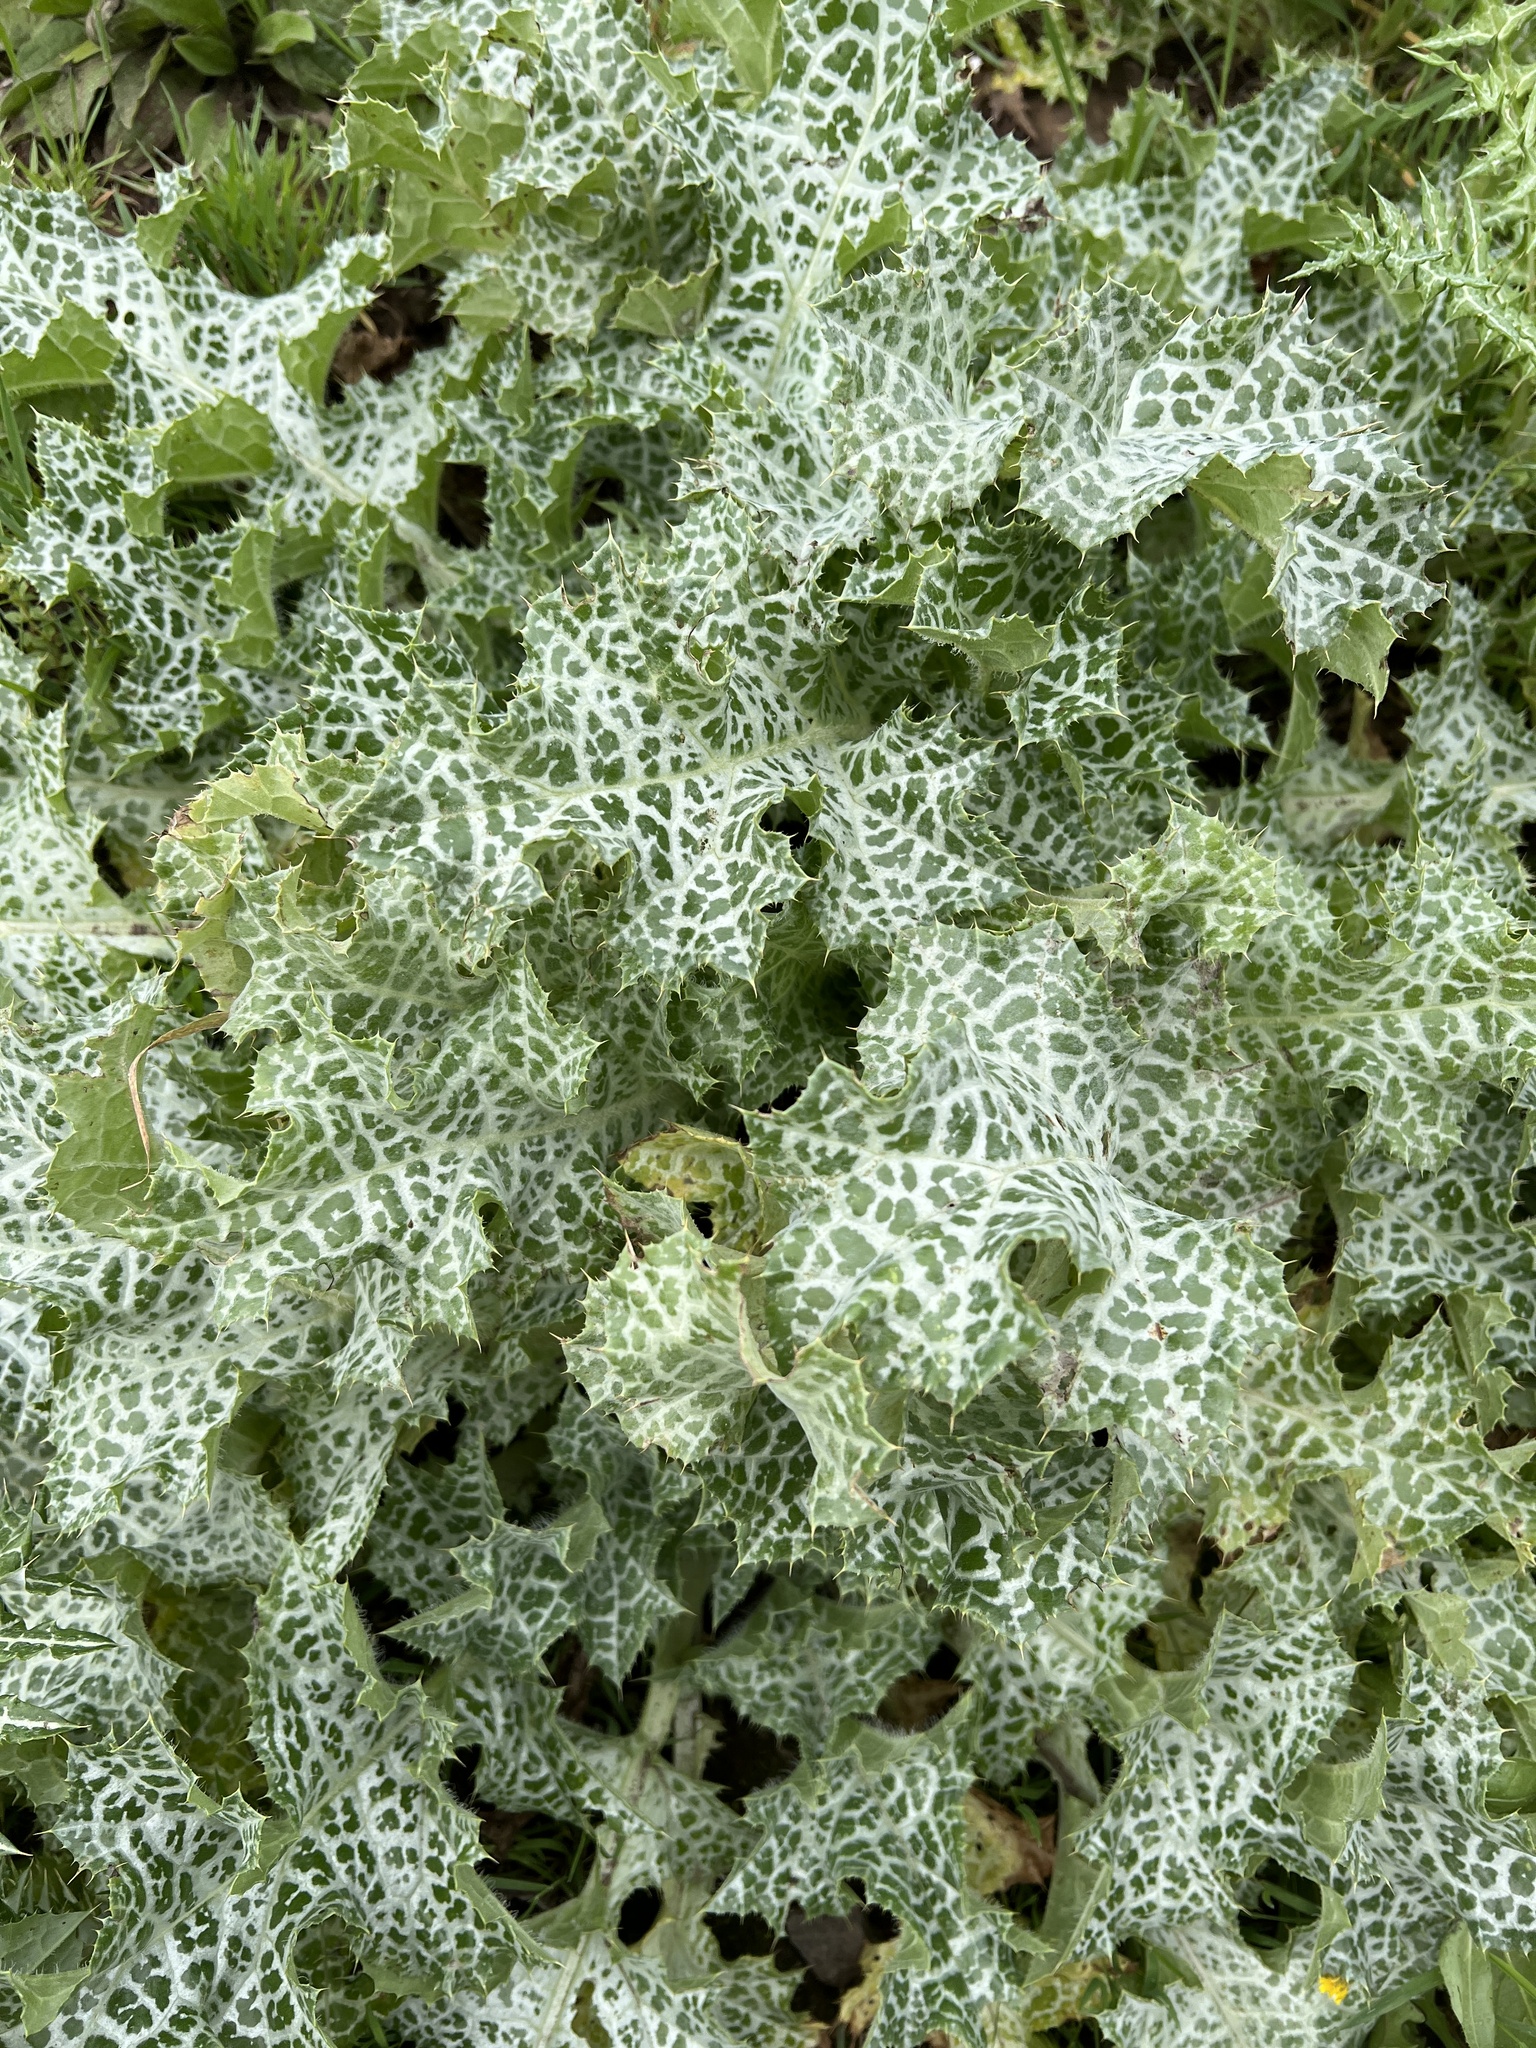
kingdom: Plantae
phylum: Tracheophyta
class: Magnoliopsida
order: Asterales
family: Asteraceae
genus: Silybum
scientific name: Silybum marianum
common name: Milk thistle
